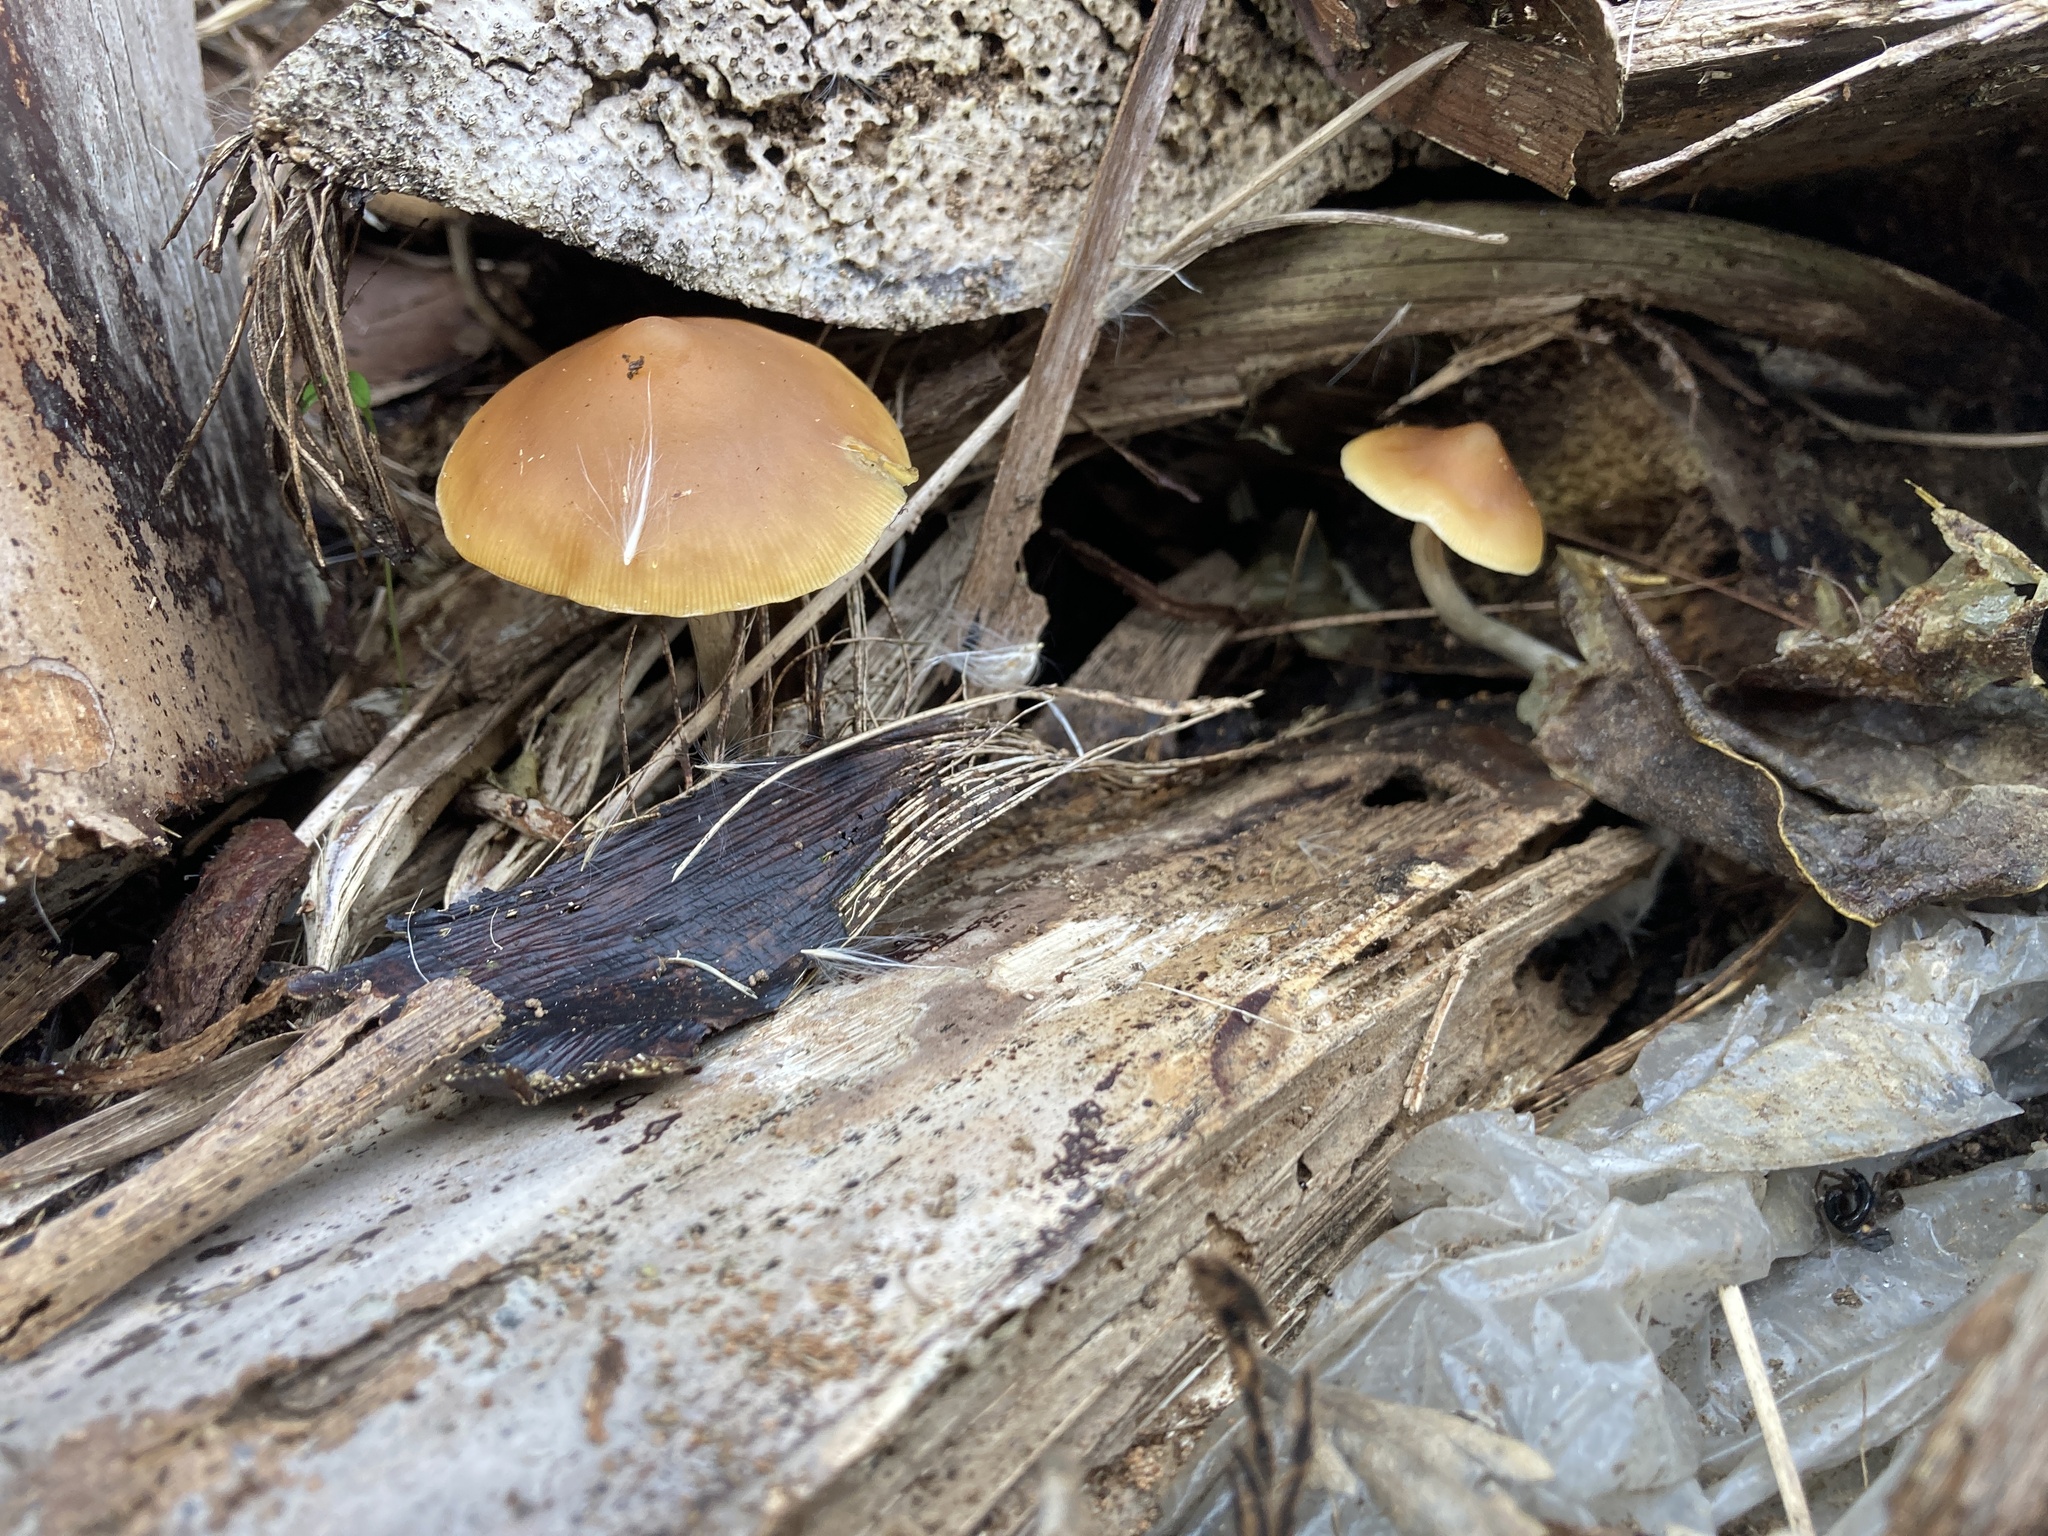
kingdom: Fungi
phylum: Basidiomycota
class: Agaricomycetes
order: Agaricales
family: Hymenogastraceae
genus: Psilocybe
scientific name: Psilocybe subaeruginosa
